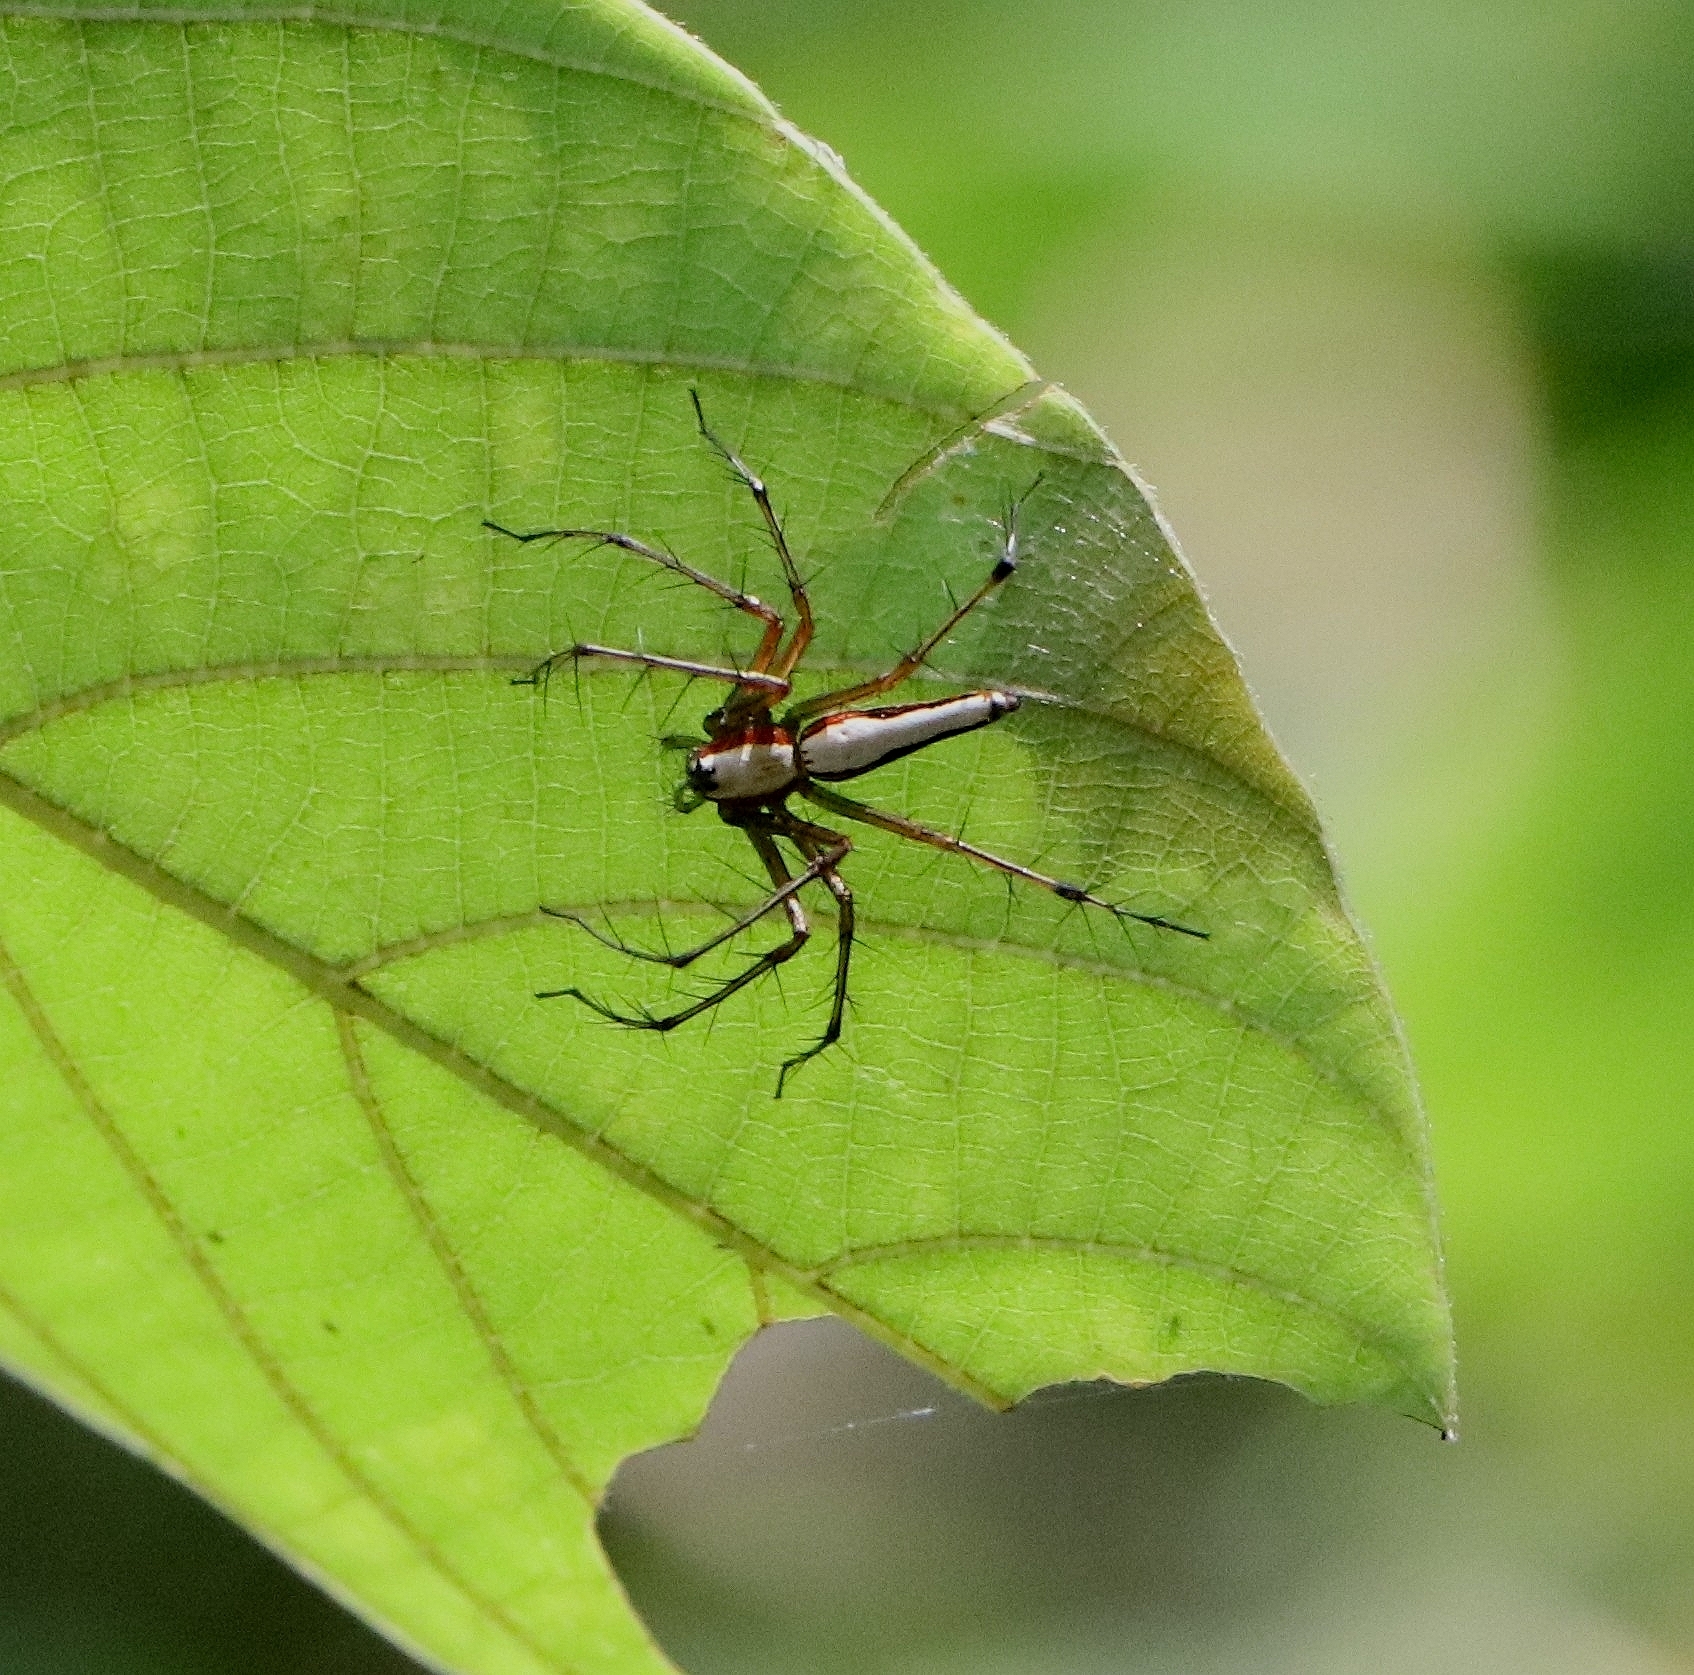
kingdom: Animalia
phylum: Arthropoda
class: Arachnida
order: Araneae
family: Oxyopidae
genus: Oxyopes
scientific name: Oxyopes shweta
